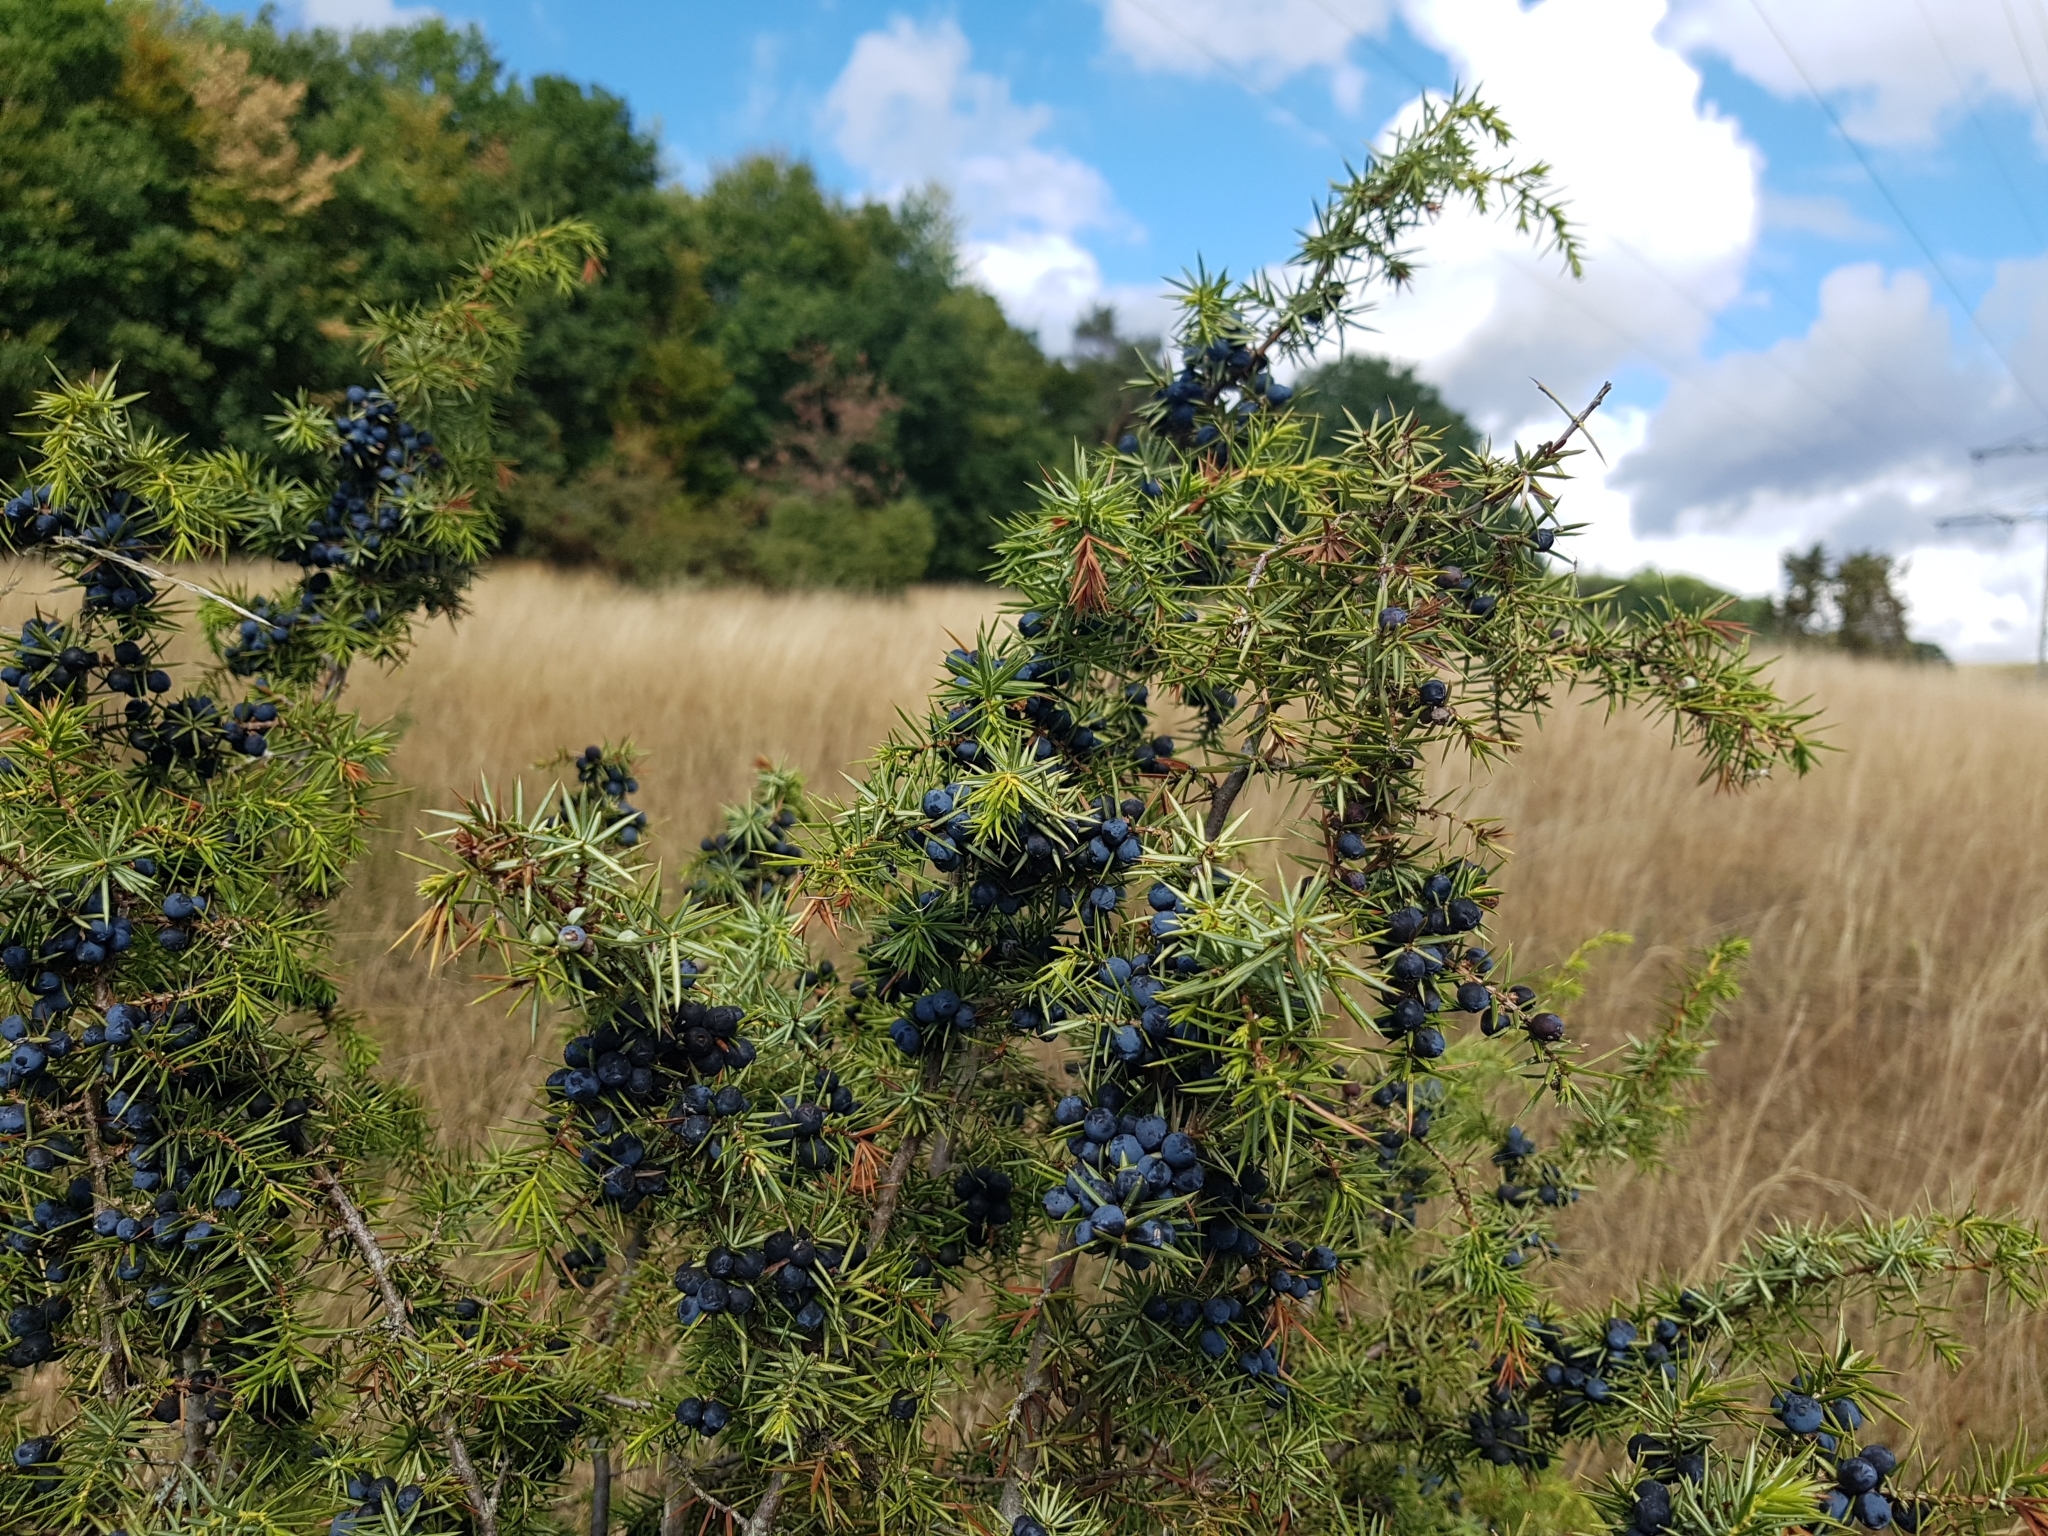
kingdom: Plantae
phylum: Tracheophyta
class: Pinopsida
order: Pinales
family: Cupressaceae
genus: Juniperus
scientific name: Juniperus communis
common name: Common juniper
